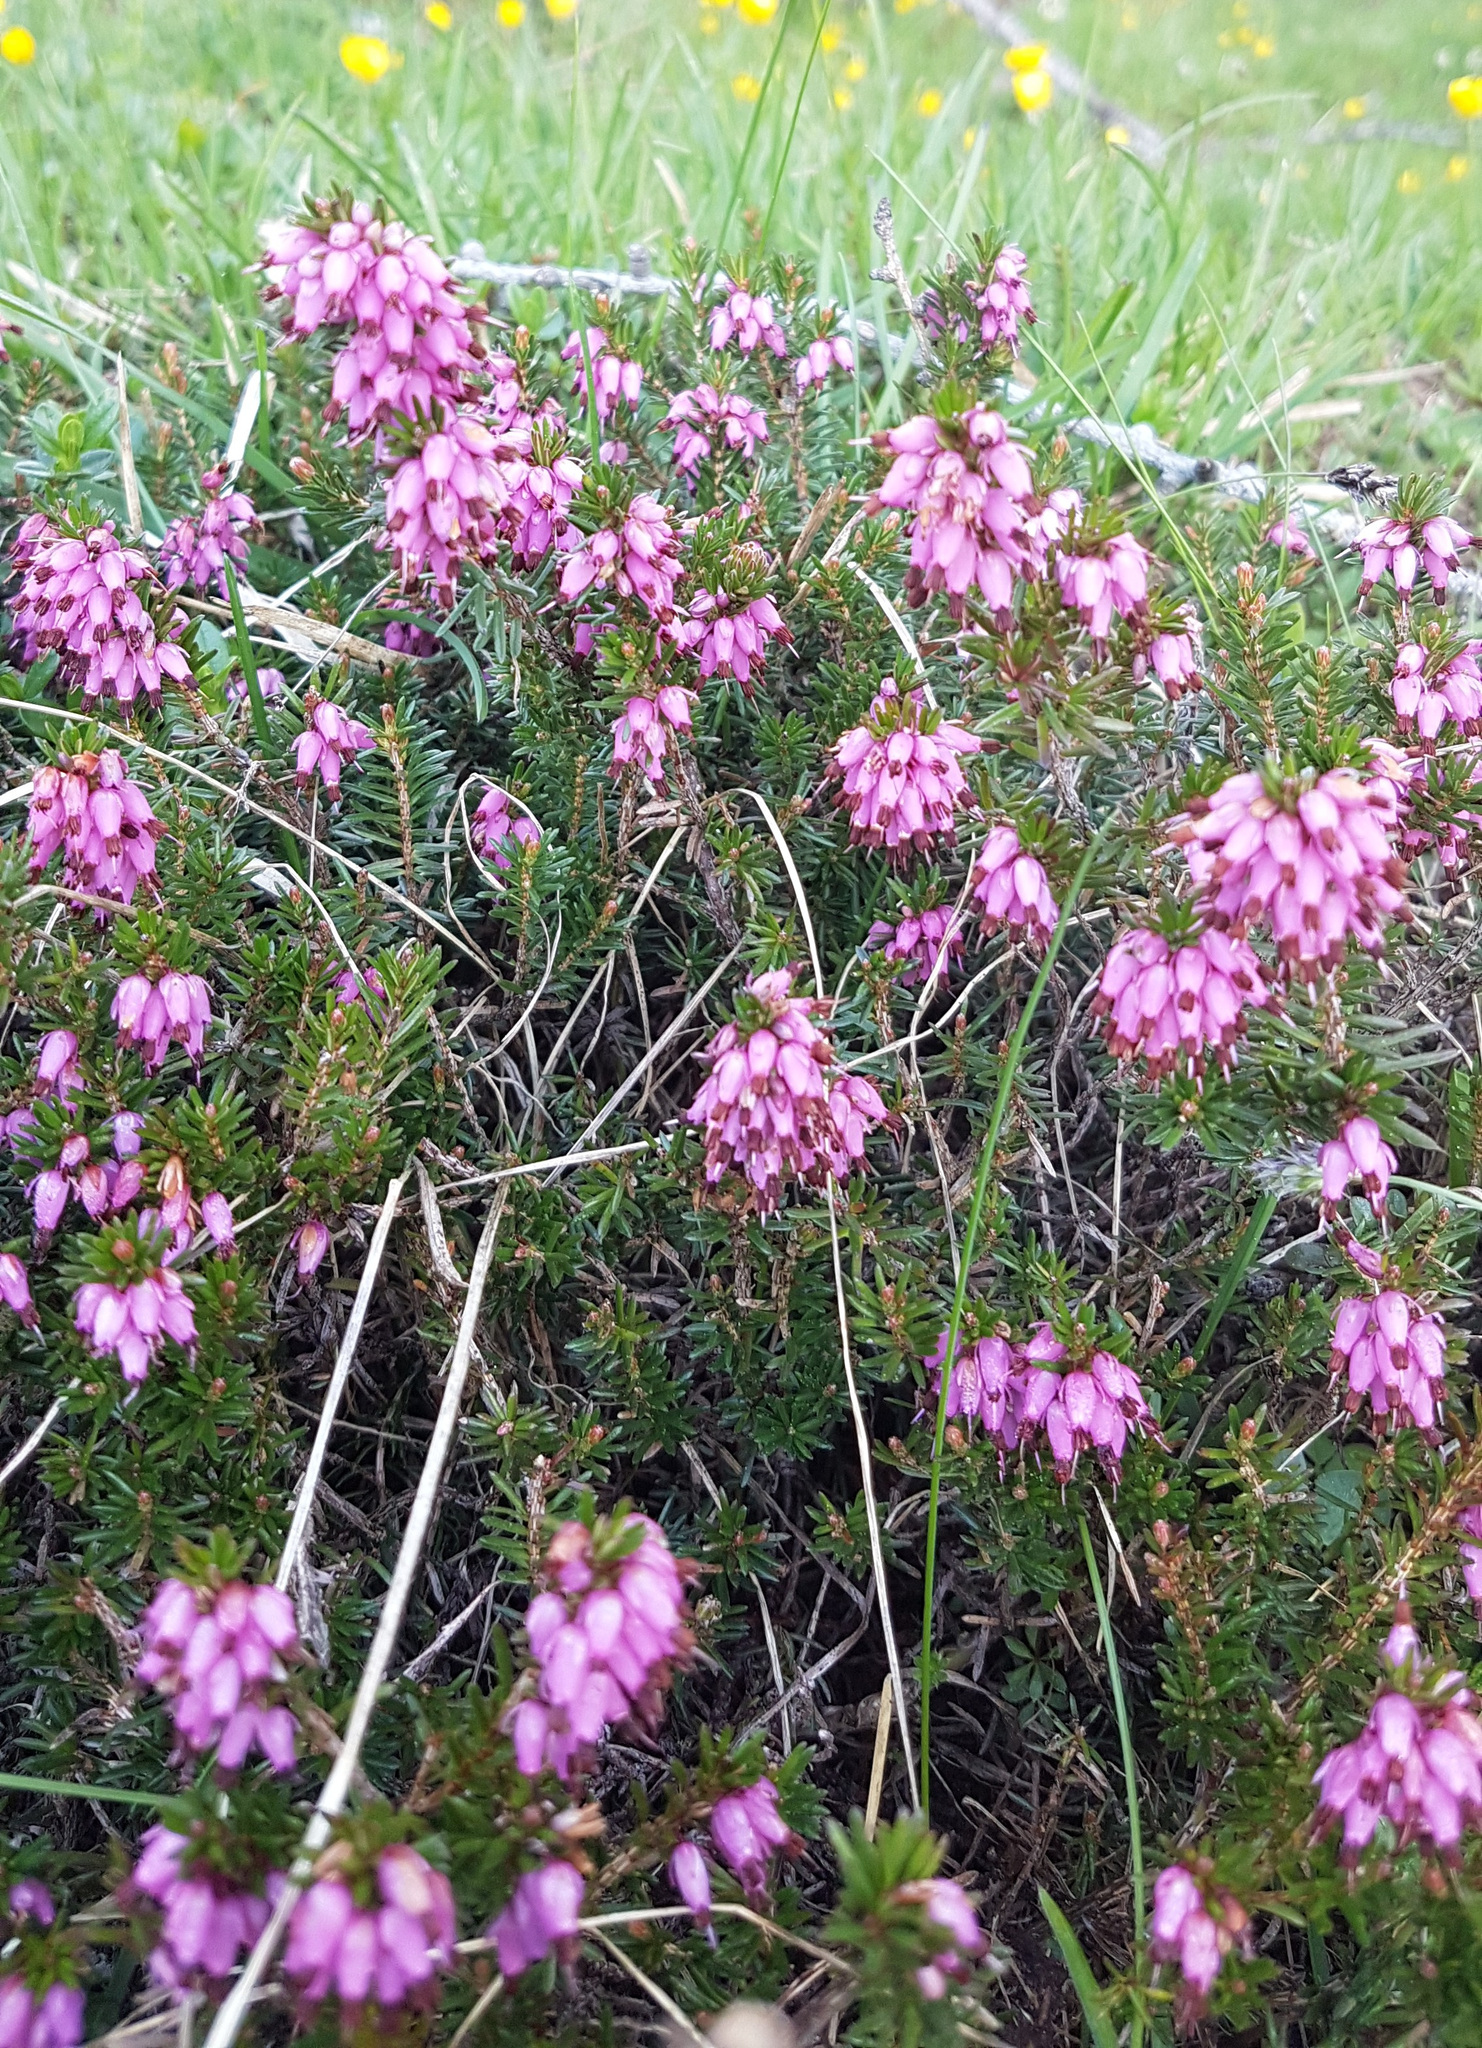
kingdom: Plantae
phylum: Tracheophyta
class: Magnoliopsida
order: Ericales
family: Ericaceae
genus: Erica
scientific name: Erica carnea
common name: Winter heath
